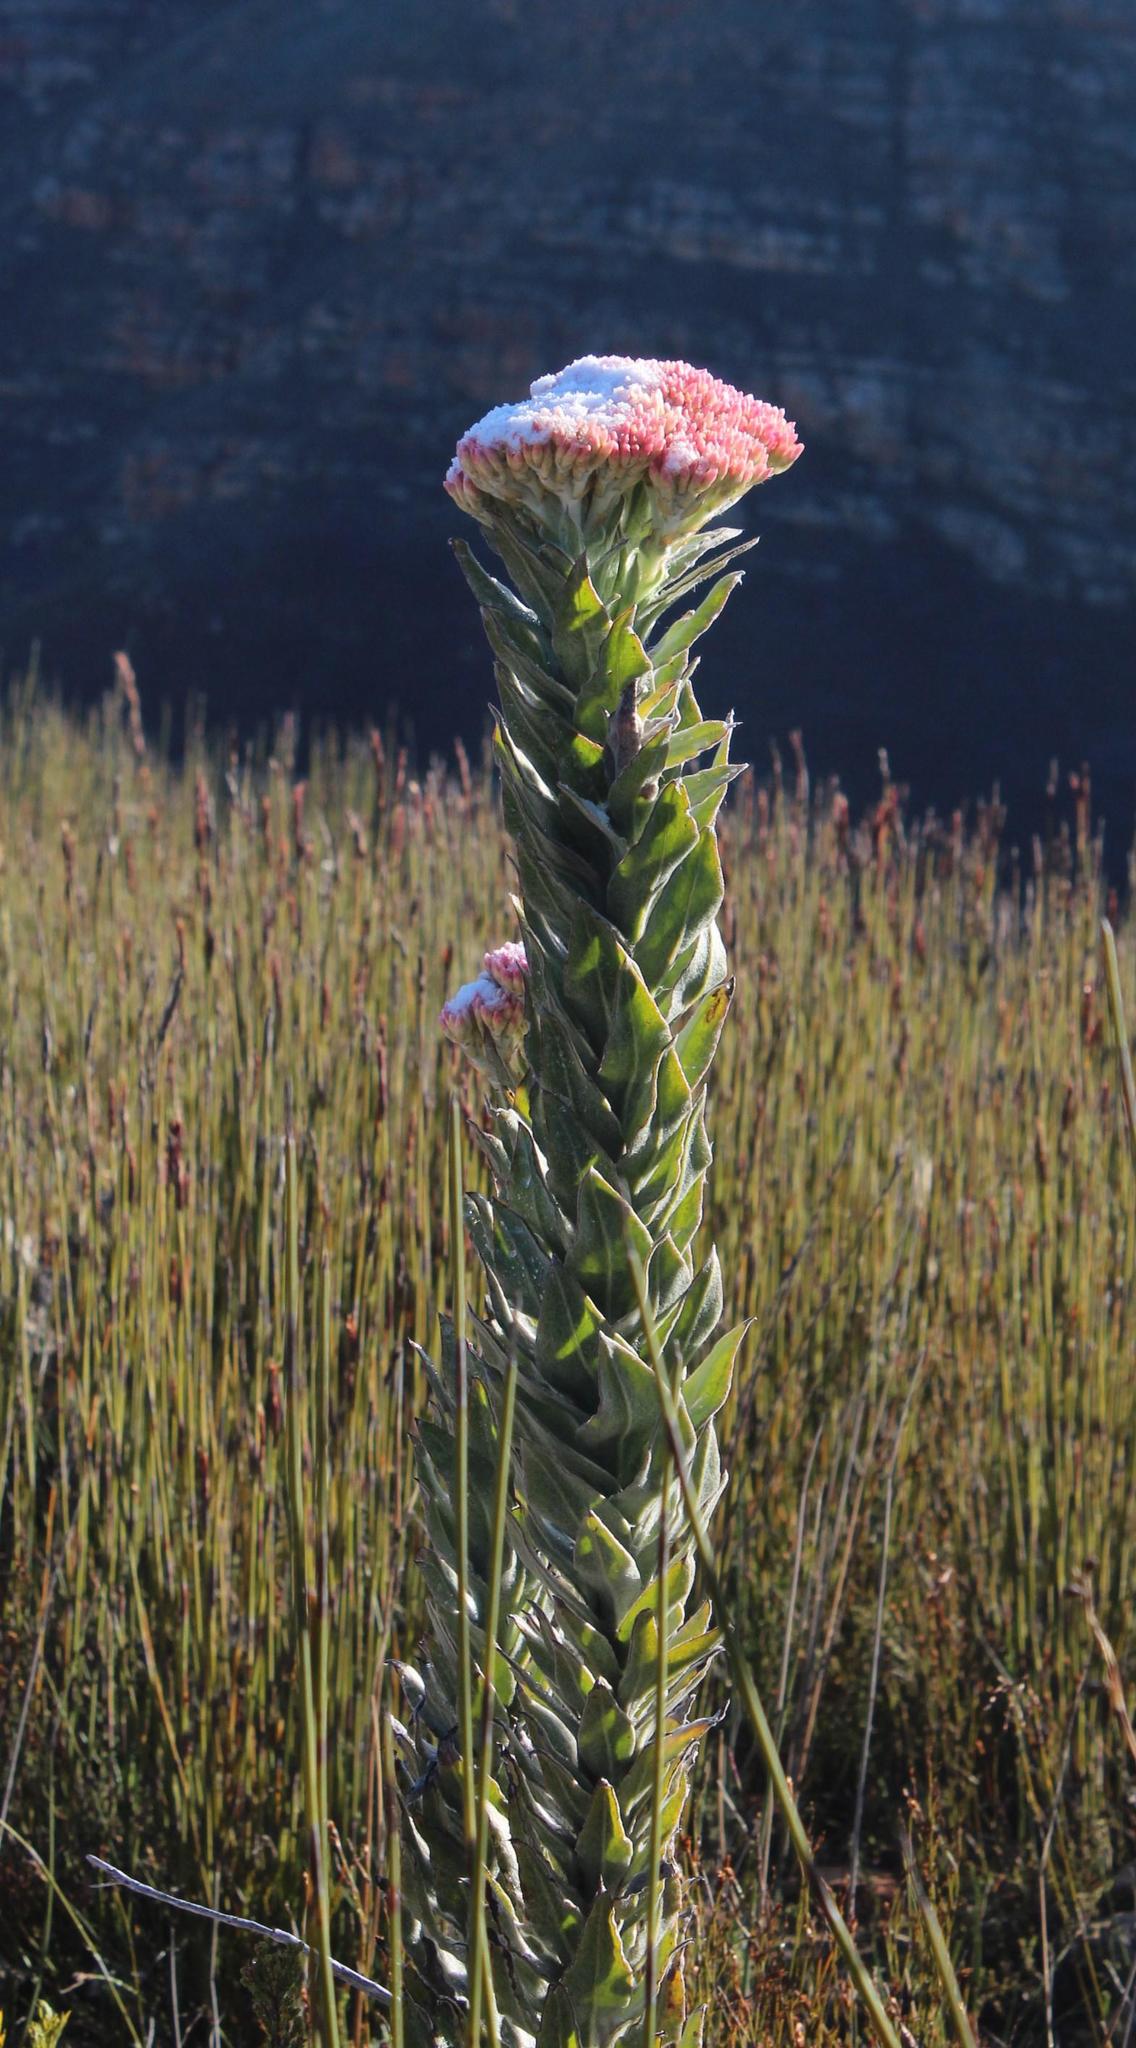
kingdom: Plantae
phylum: Tracheophyta
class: Magnoliopsida
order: Asterales
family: Asteraceae
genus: Syncarpha
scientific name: Syncarpha milleflora
